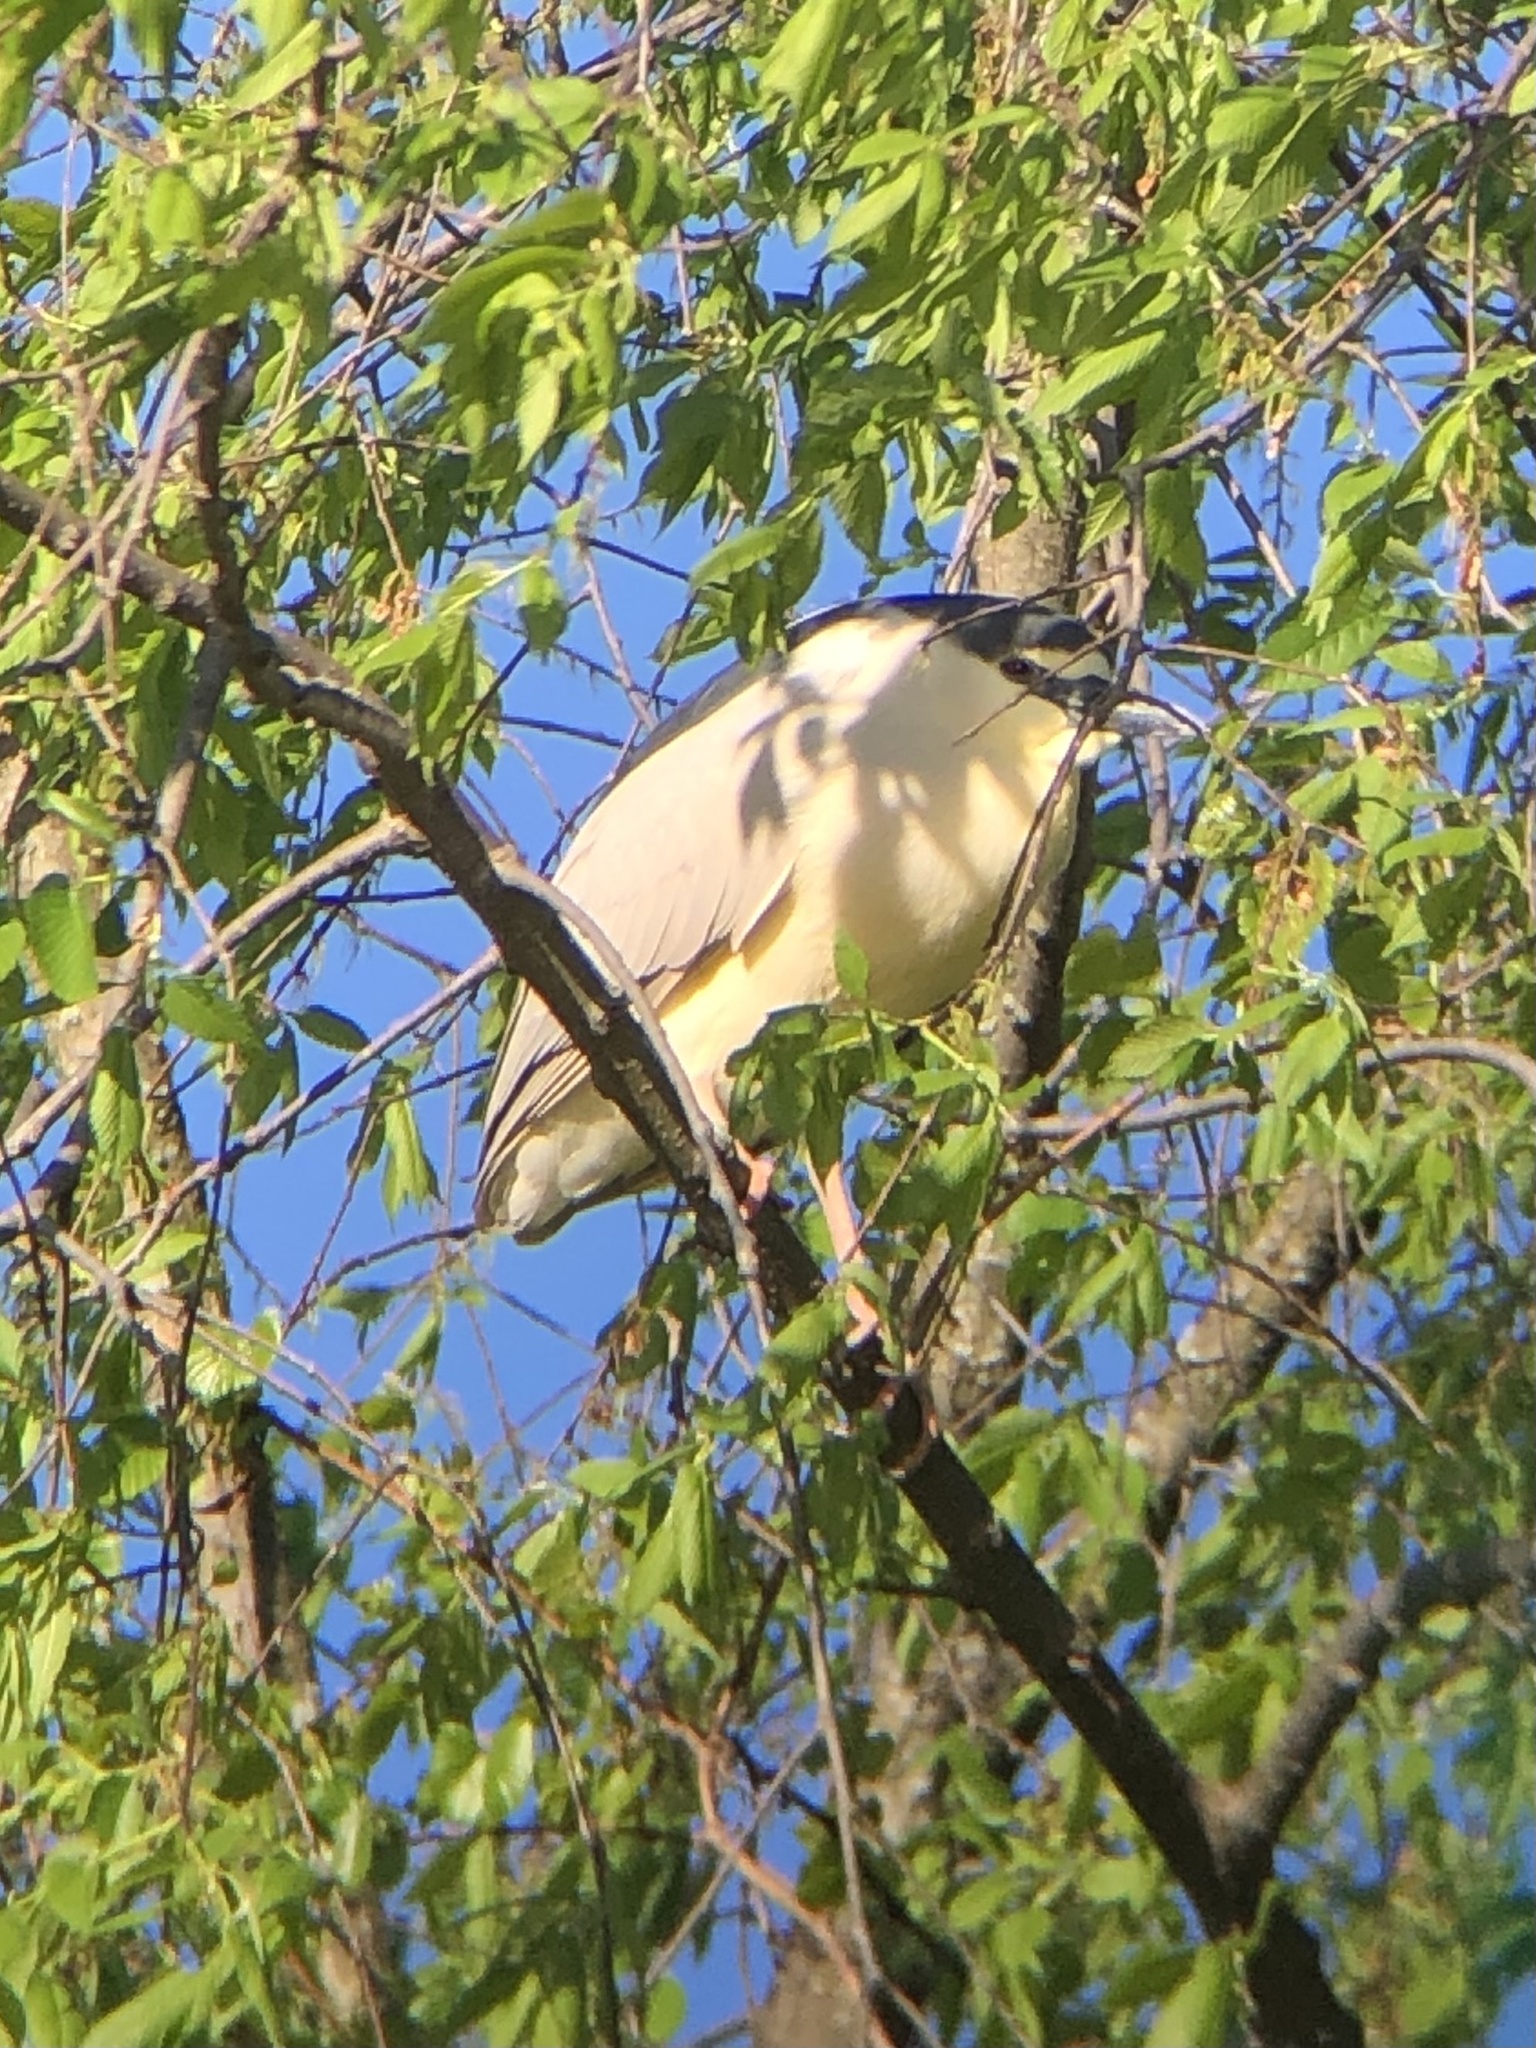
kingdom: Animalia
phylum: Chordata
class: Aves
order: Pelecaniformes
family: Ardeidae
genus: Nycticorax
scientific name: Nycticorax nycticorax
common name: Black-crowned night heron
